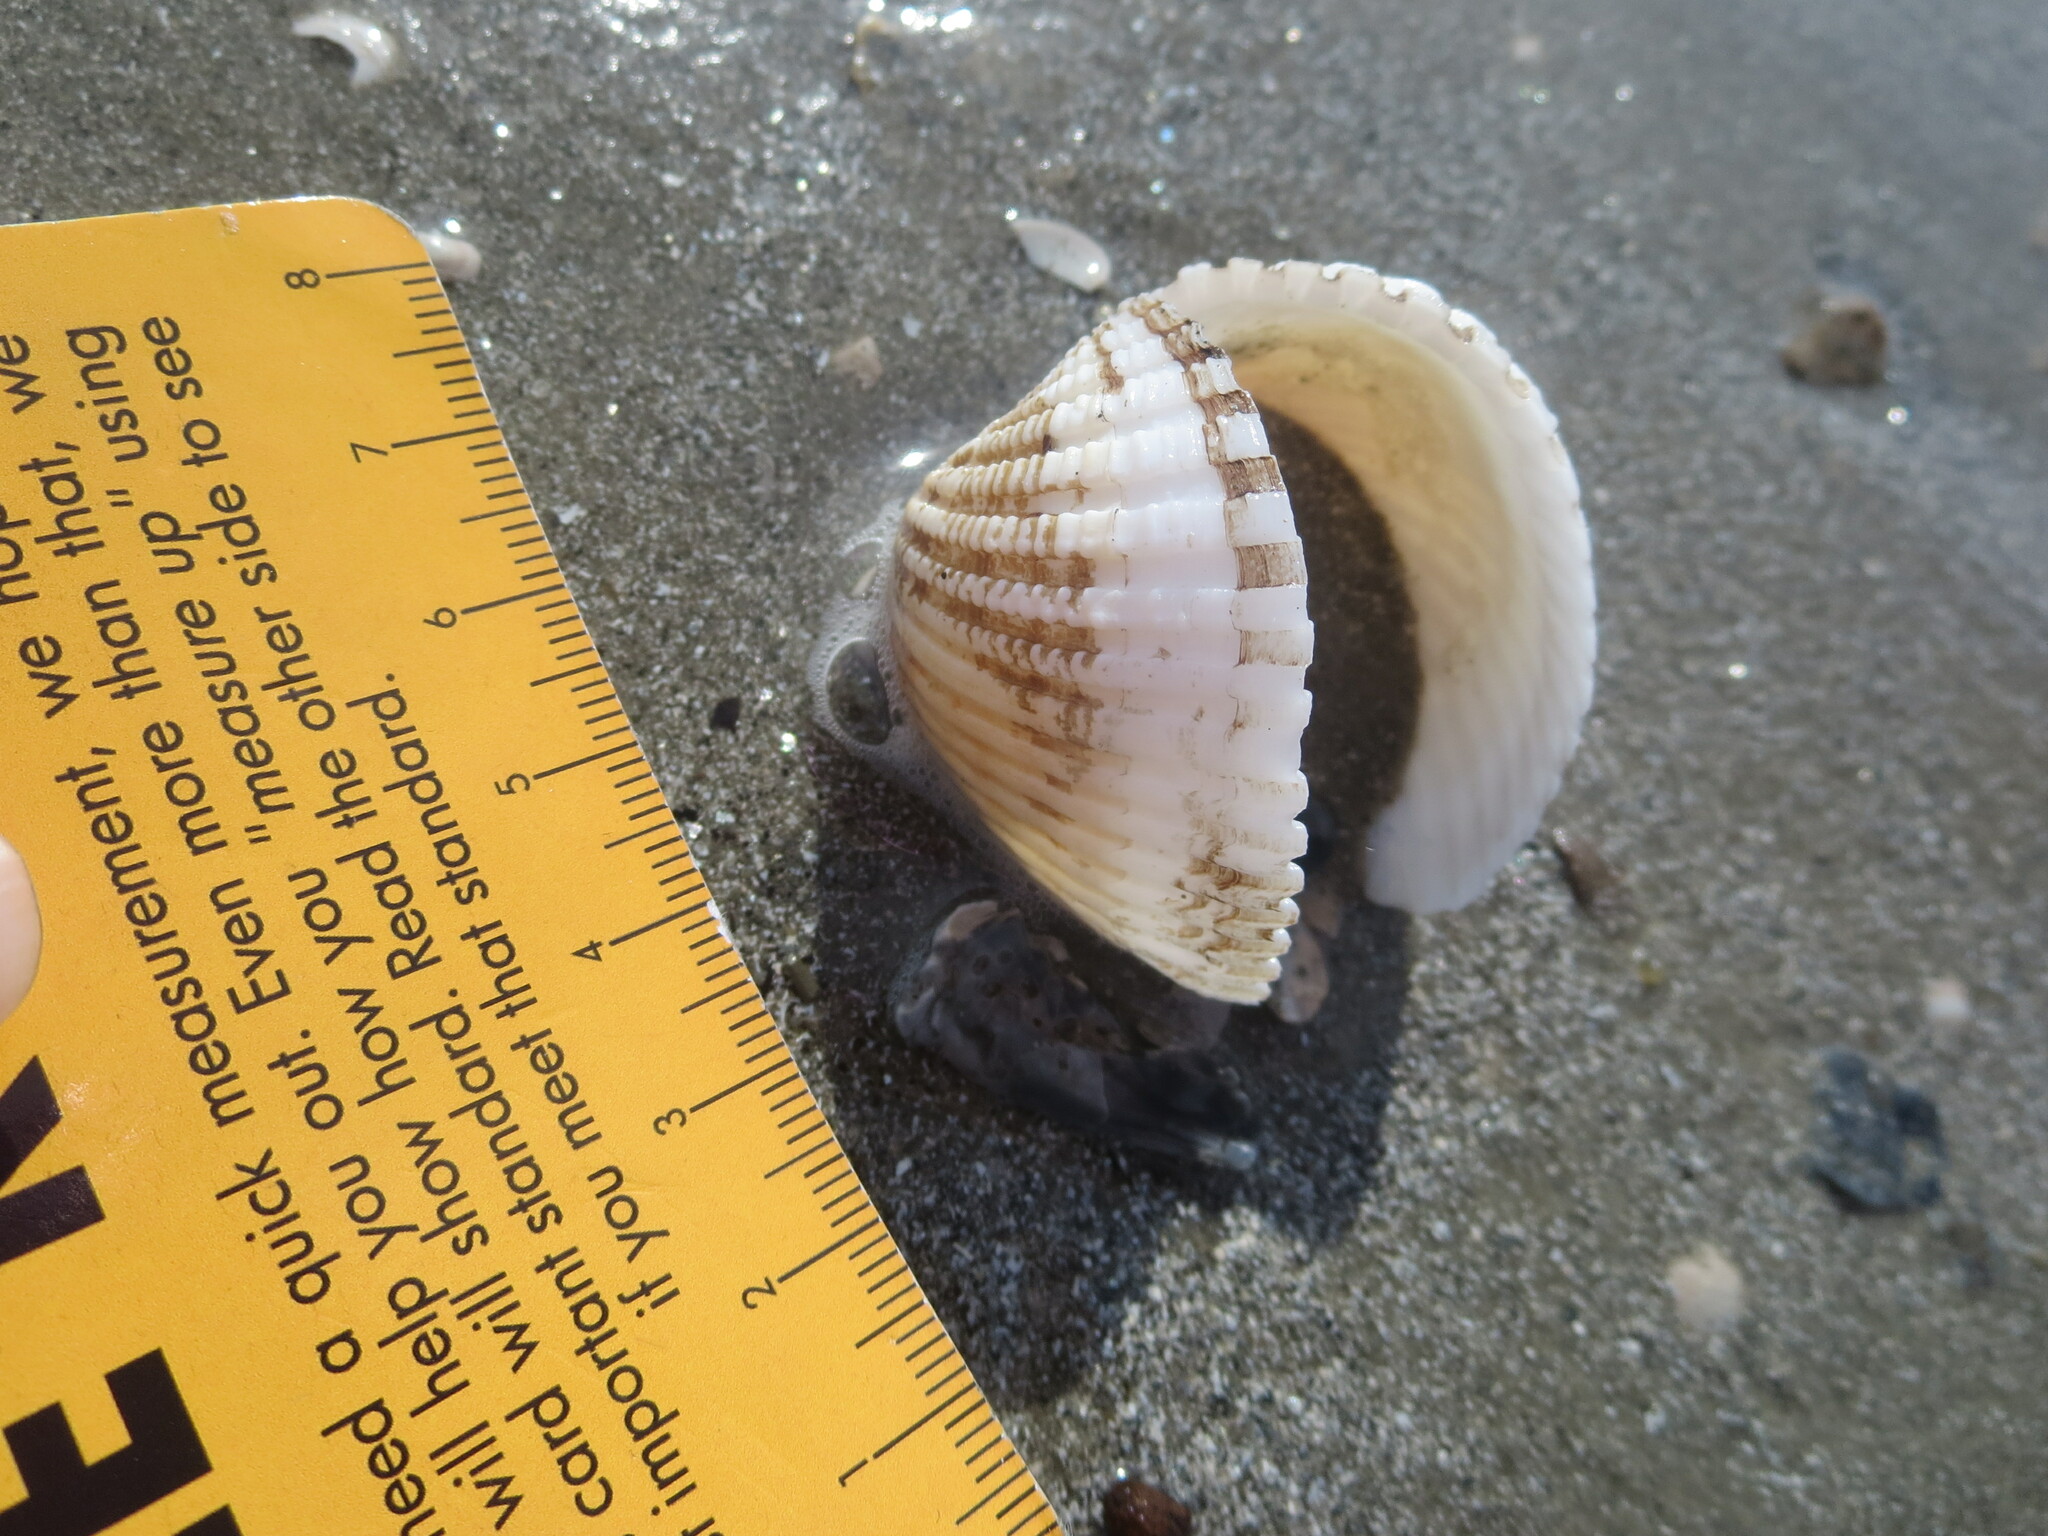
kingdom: Animalia
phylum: Mollusca
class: Bivalvia
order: Arcida
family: Arcidae
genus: Anadara
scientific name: Anadara brasiliana
